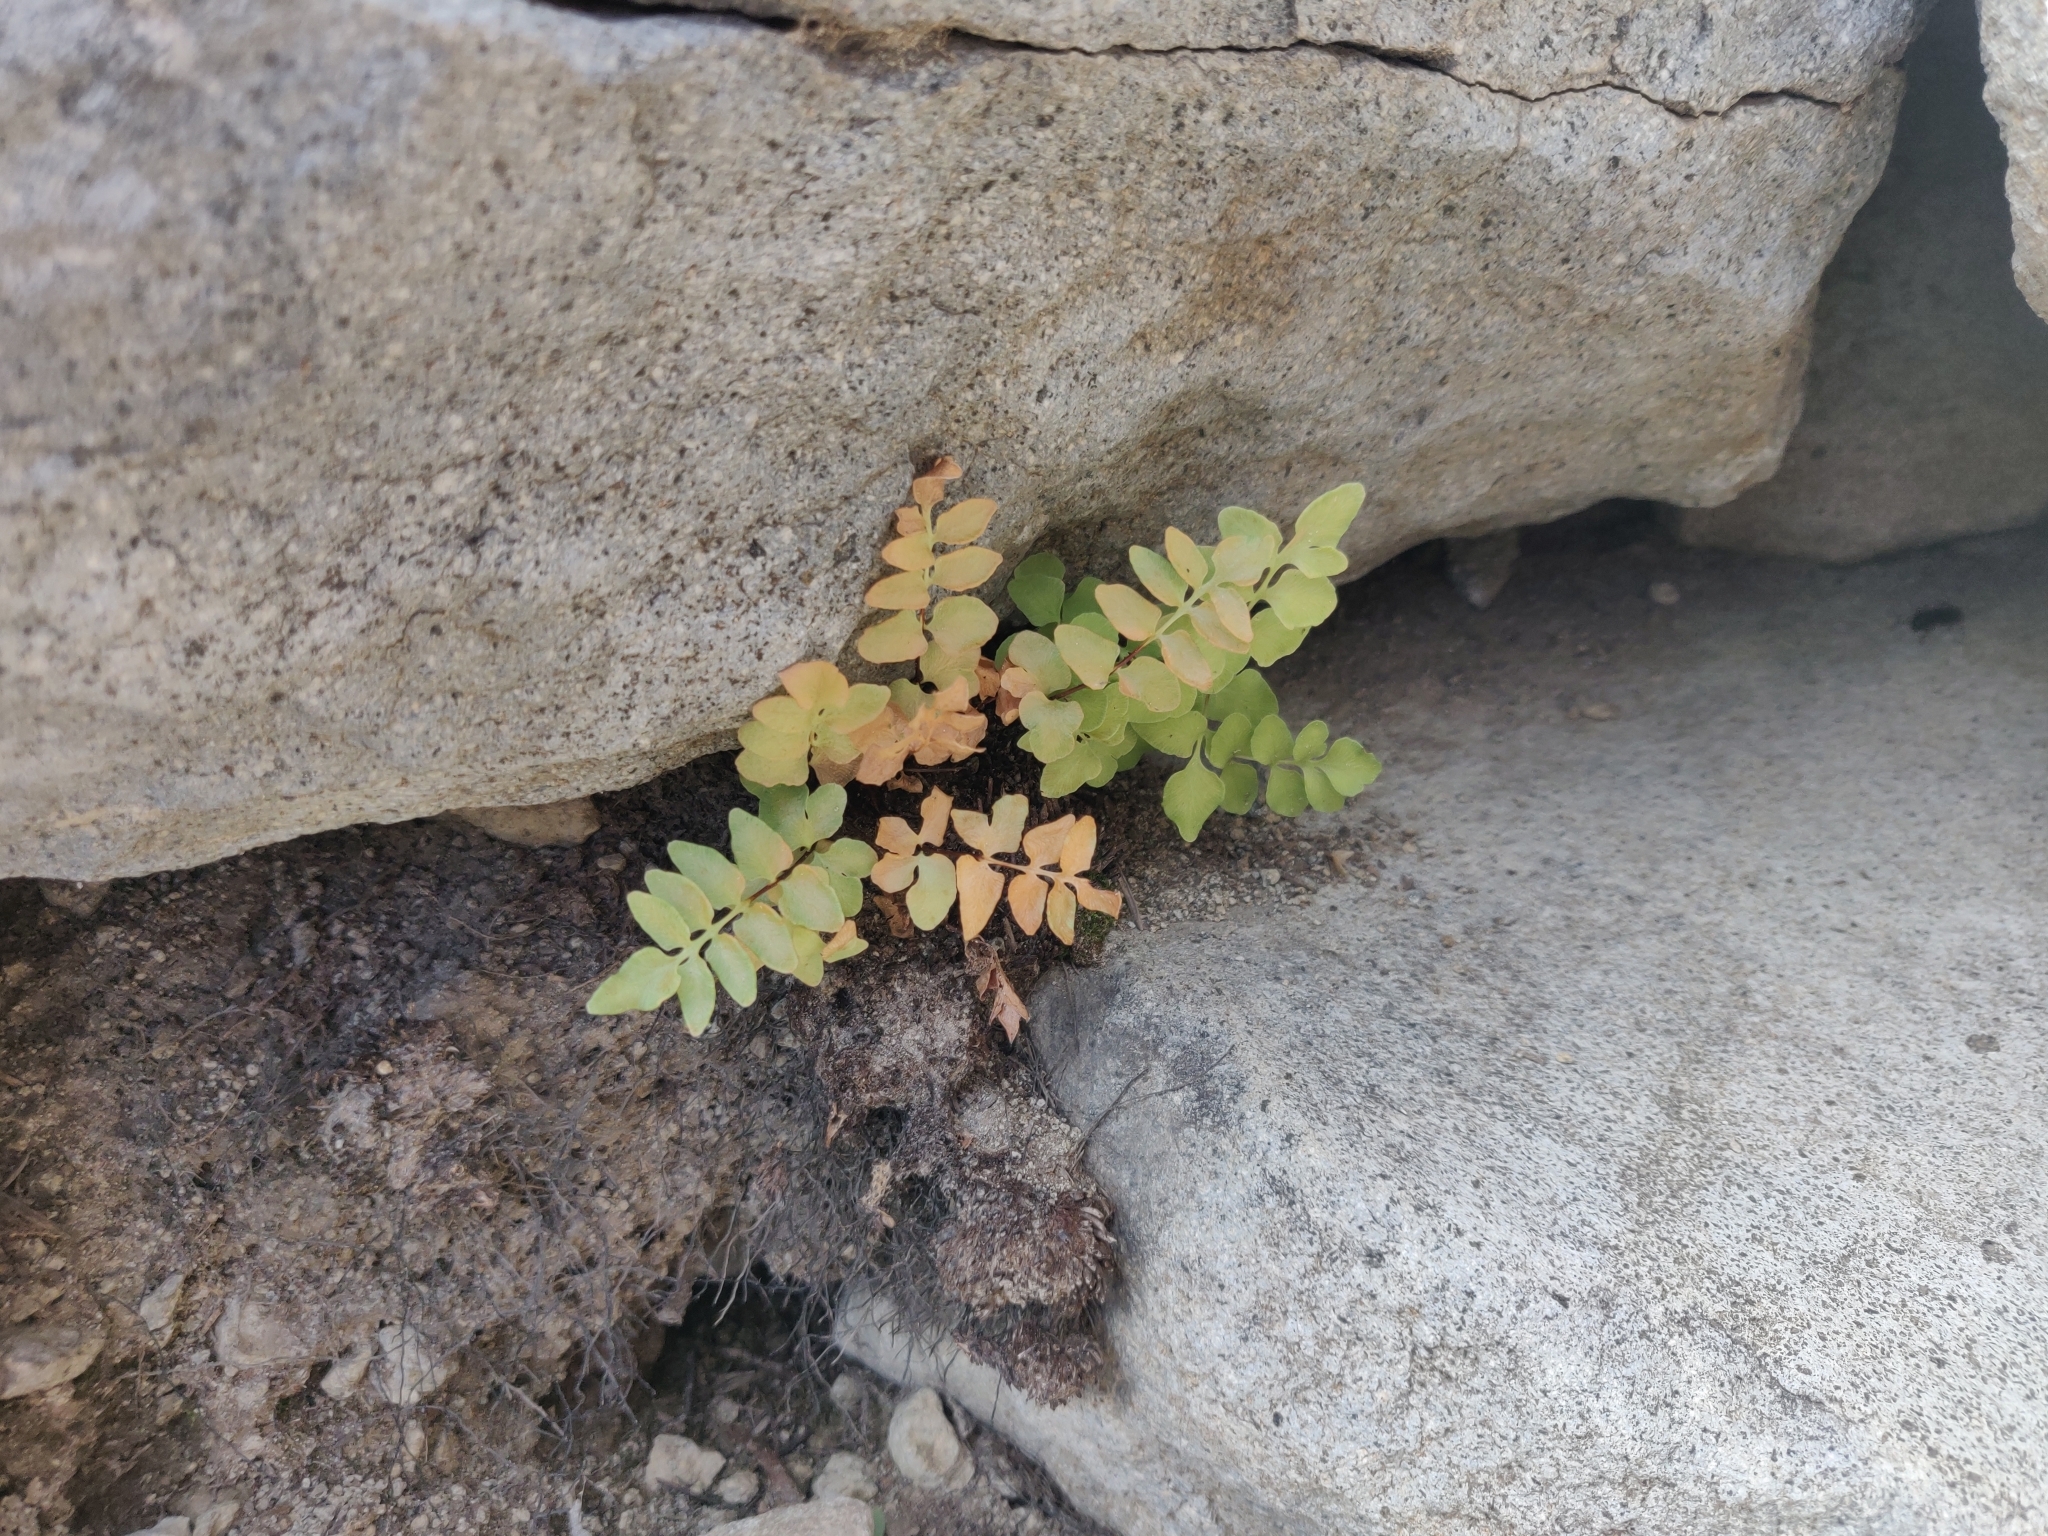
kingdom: Plantae
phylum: Tracheophyta
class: Polypodiopsida
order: Polypodiales
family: Pteridaceae
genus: Pellaea
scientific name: Pellaea breweri
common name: Brewer's cliffbrake
